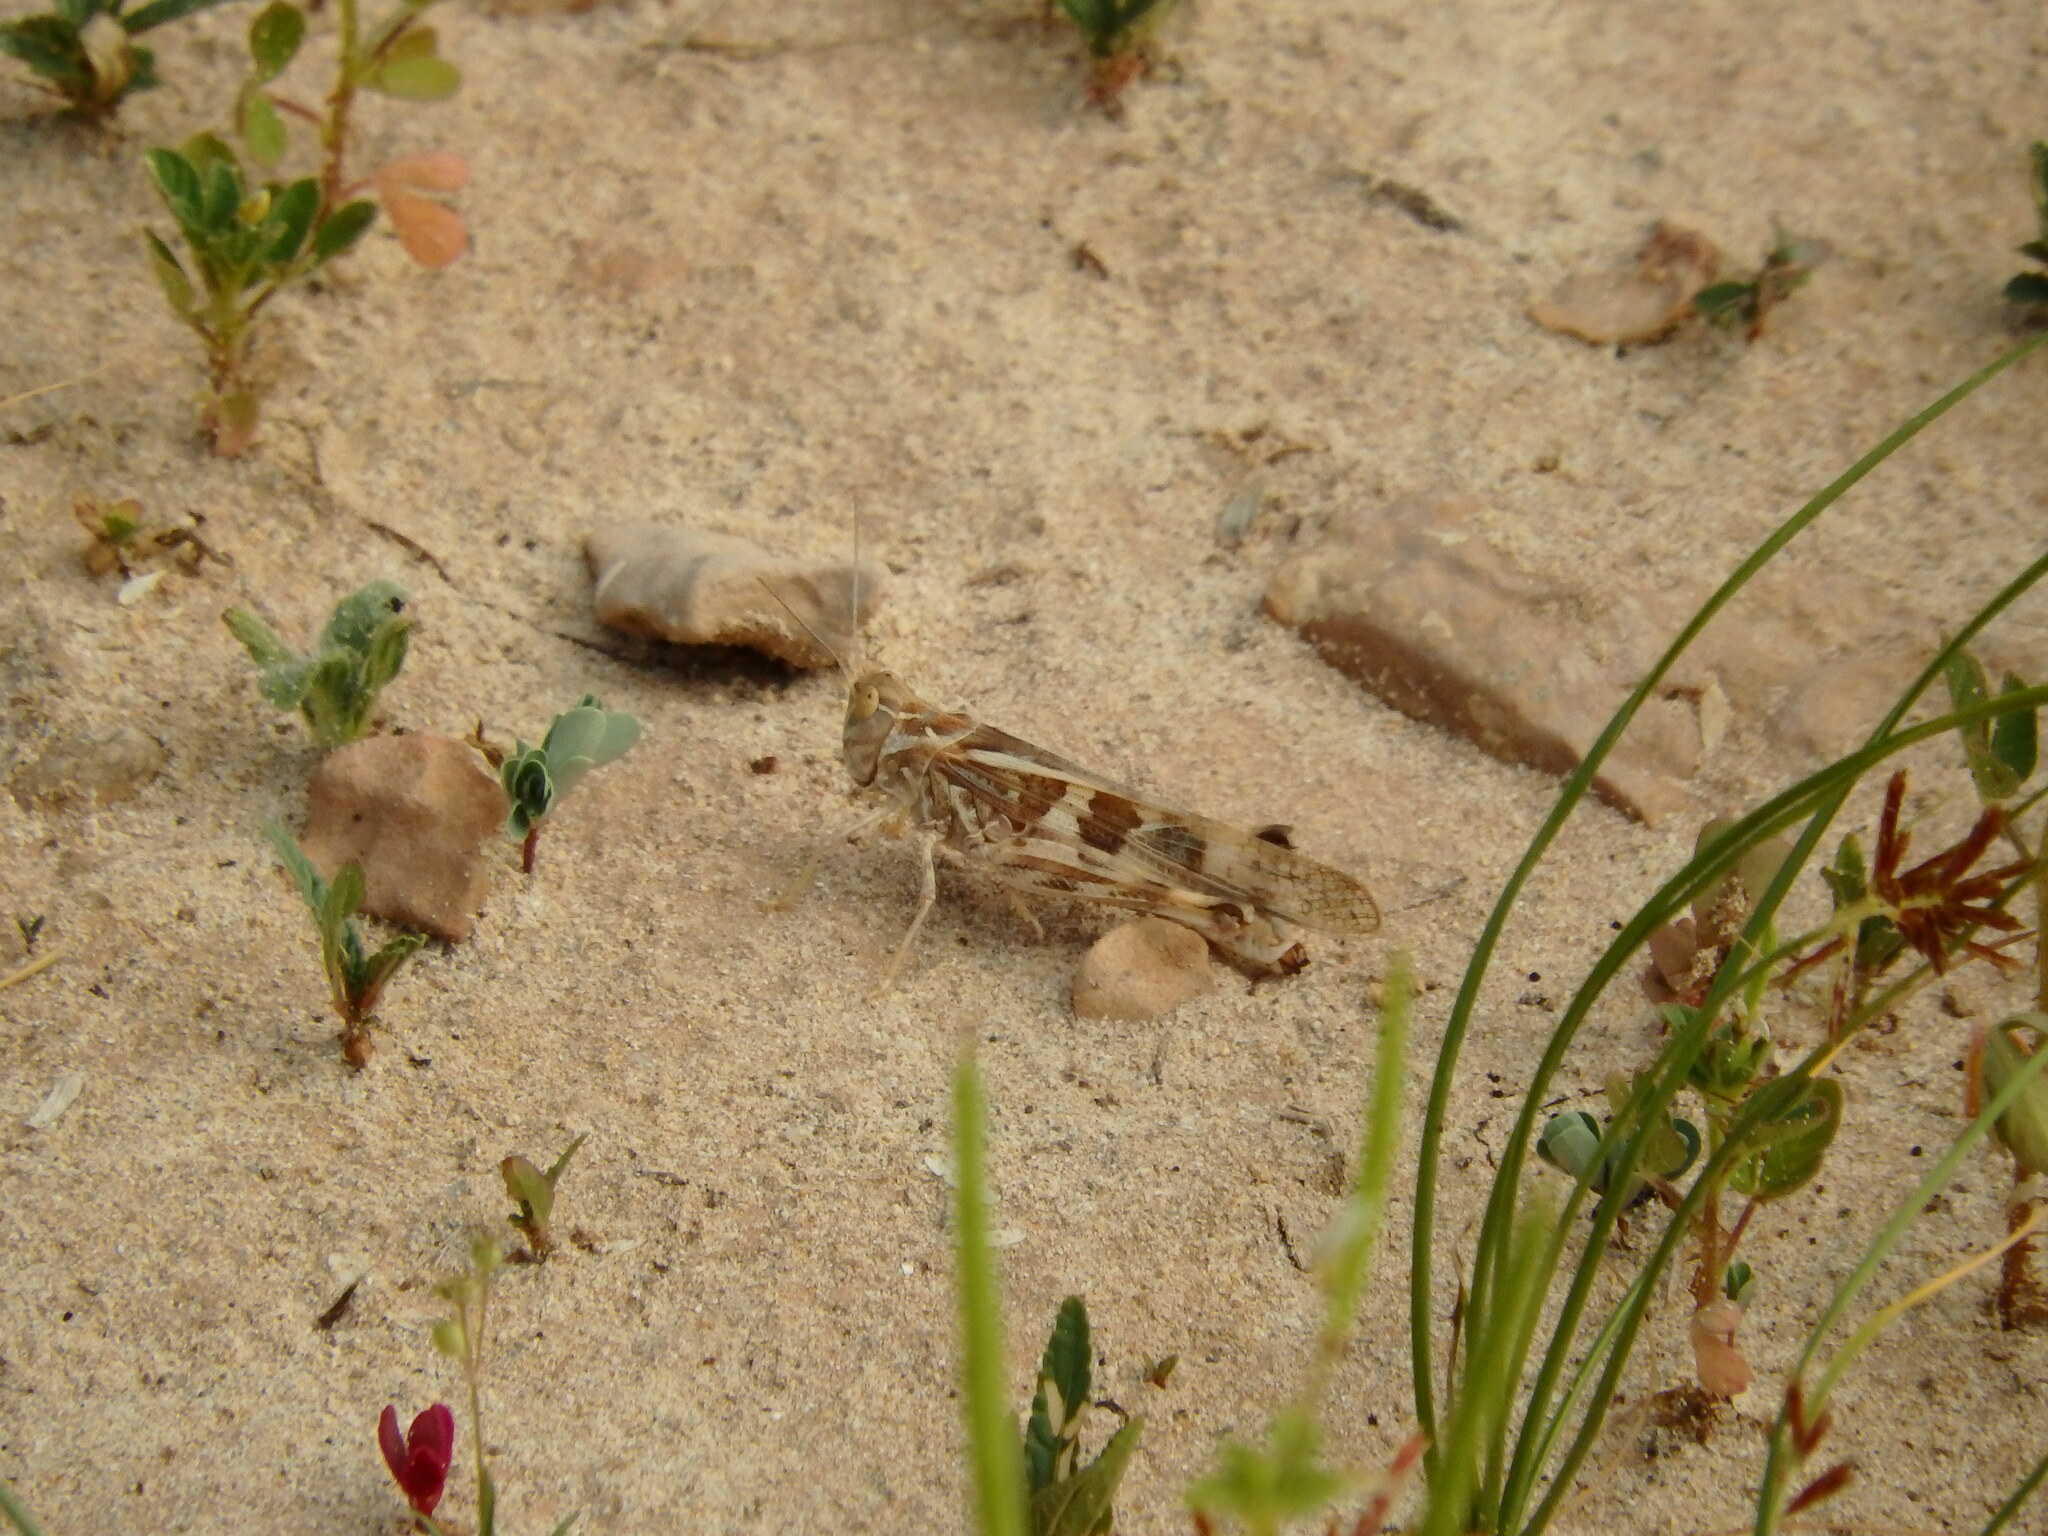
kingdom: Animalia
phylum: Arthropoda
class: Insecta
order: Orthoptera
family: Acrididae
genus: Oedaleus
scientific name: Oedaleus senegalensis
